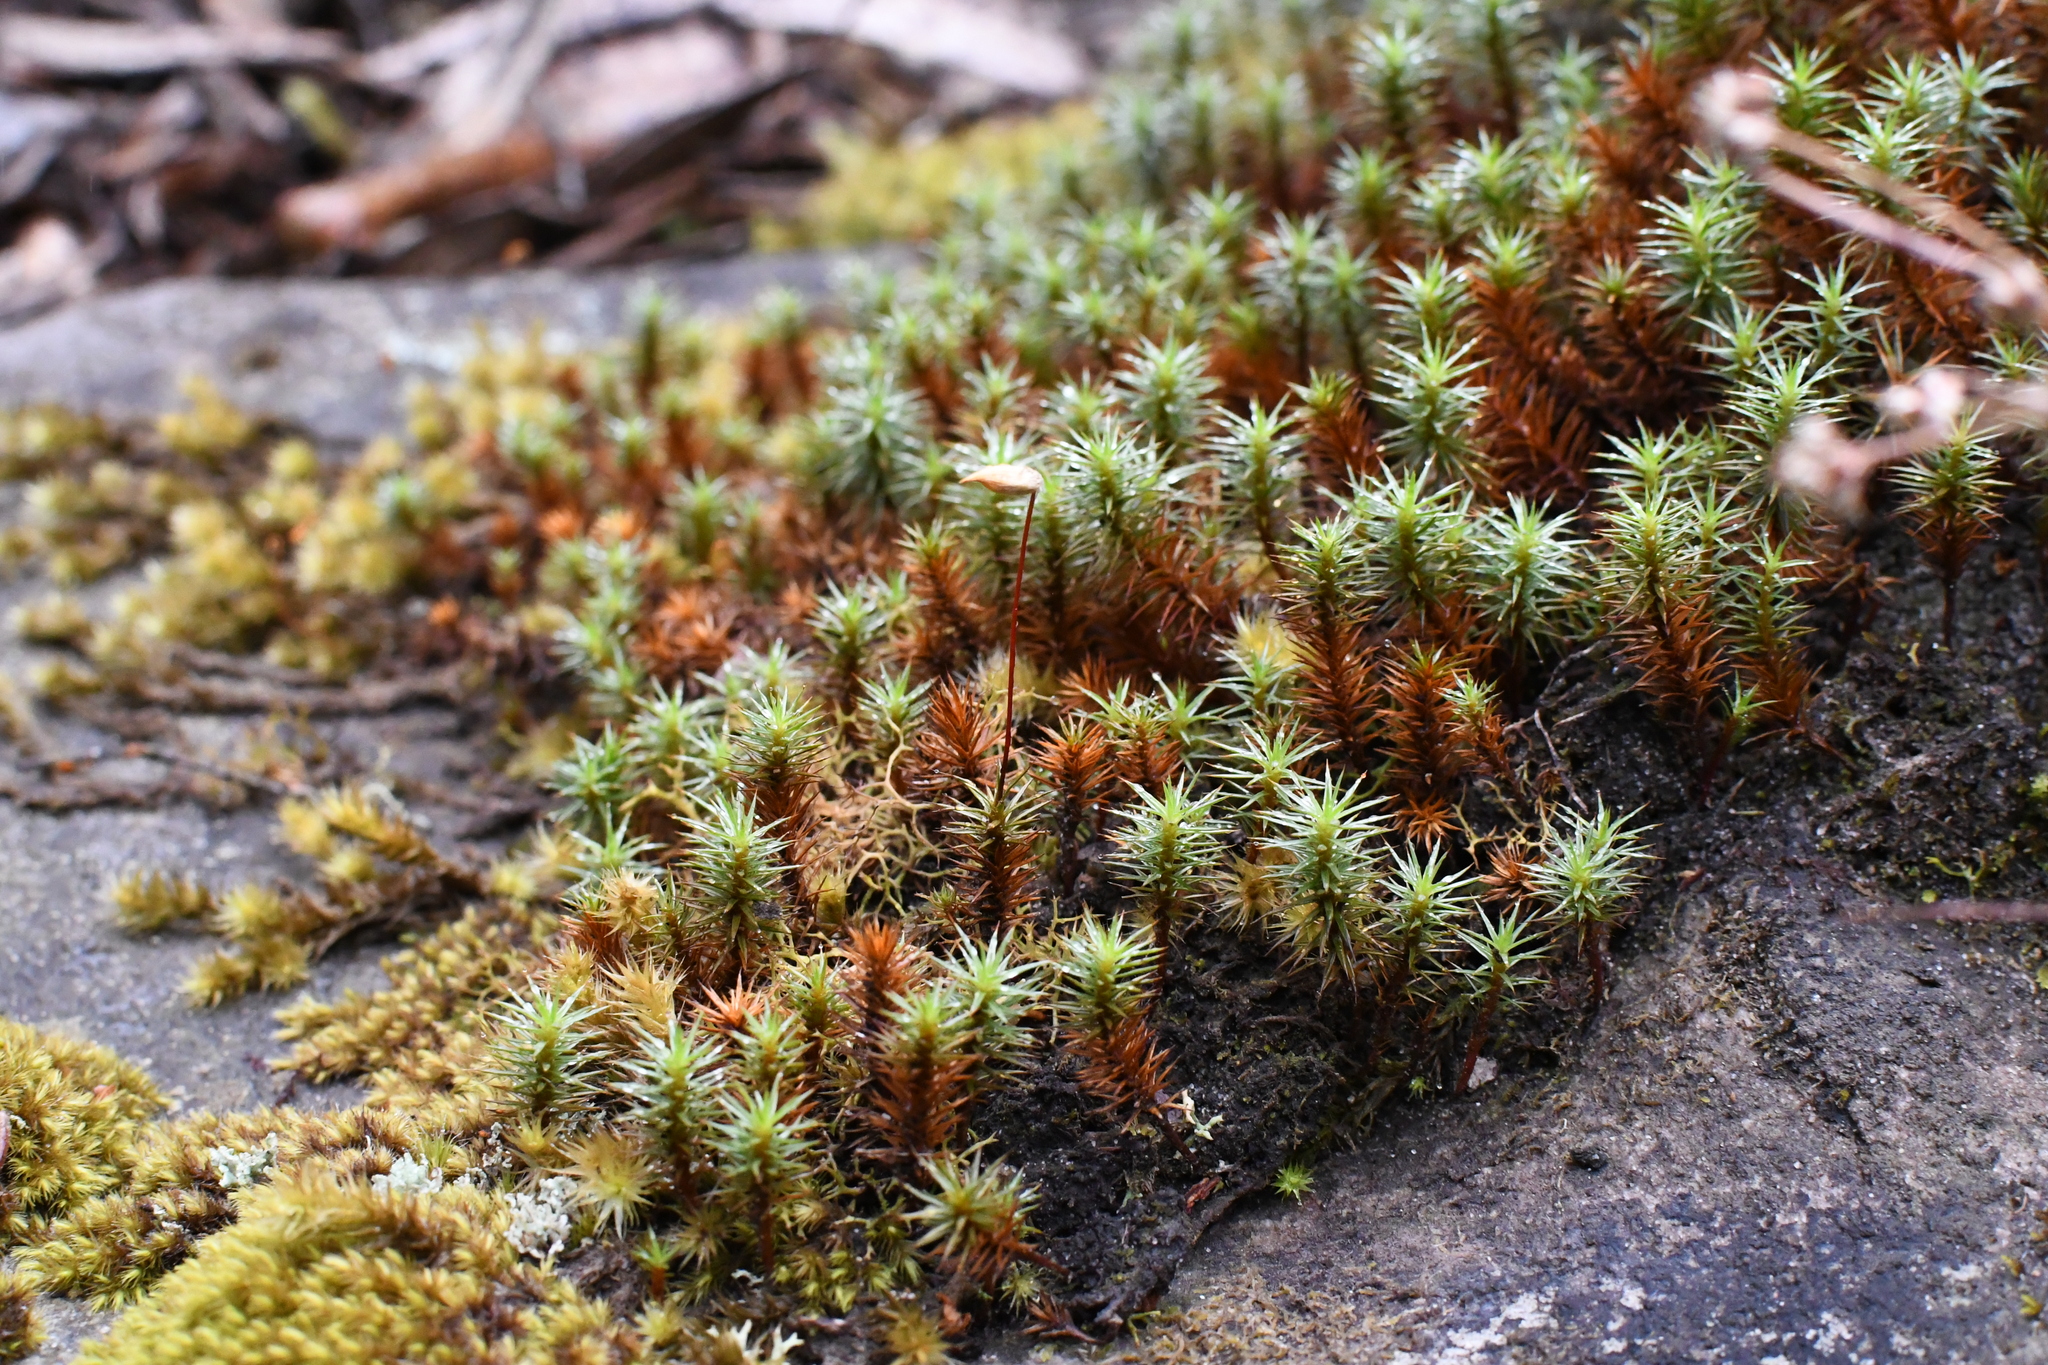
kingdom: Plantae
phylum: Bryophyta
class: Polytrichopsida
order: Polytrichales
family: Polytrichaceae
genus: Polytrichum
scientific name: Polytrichum juniperinum
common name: Juniper haircap moss
